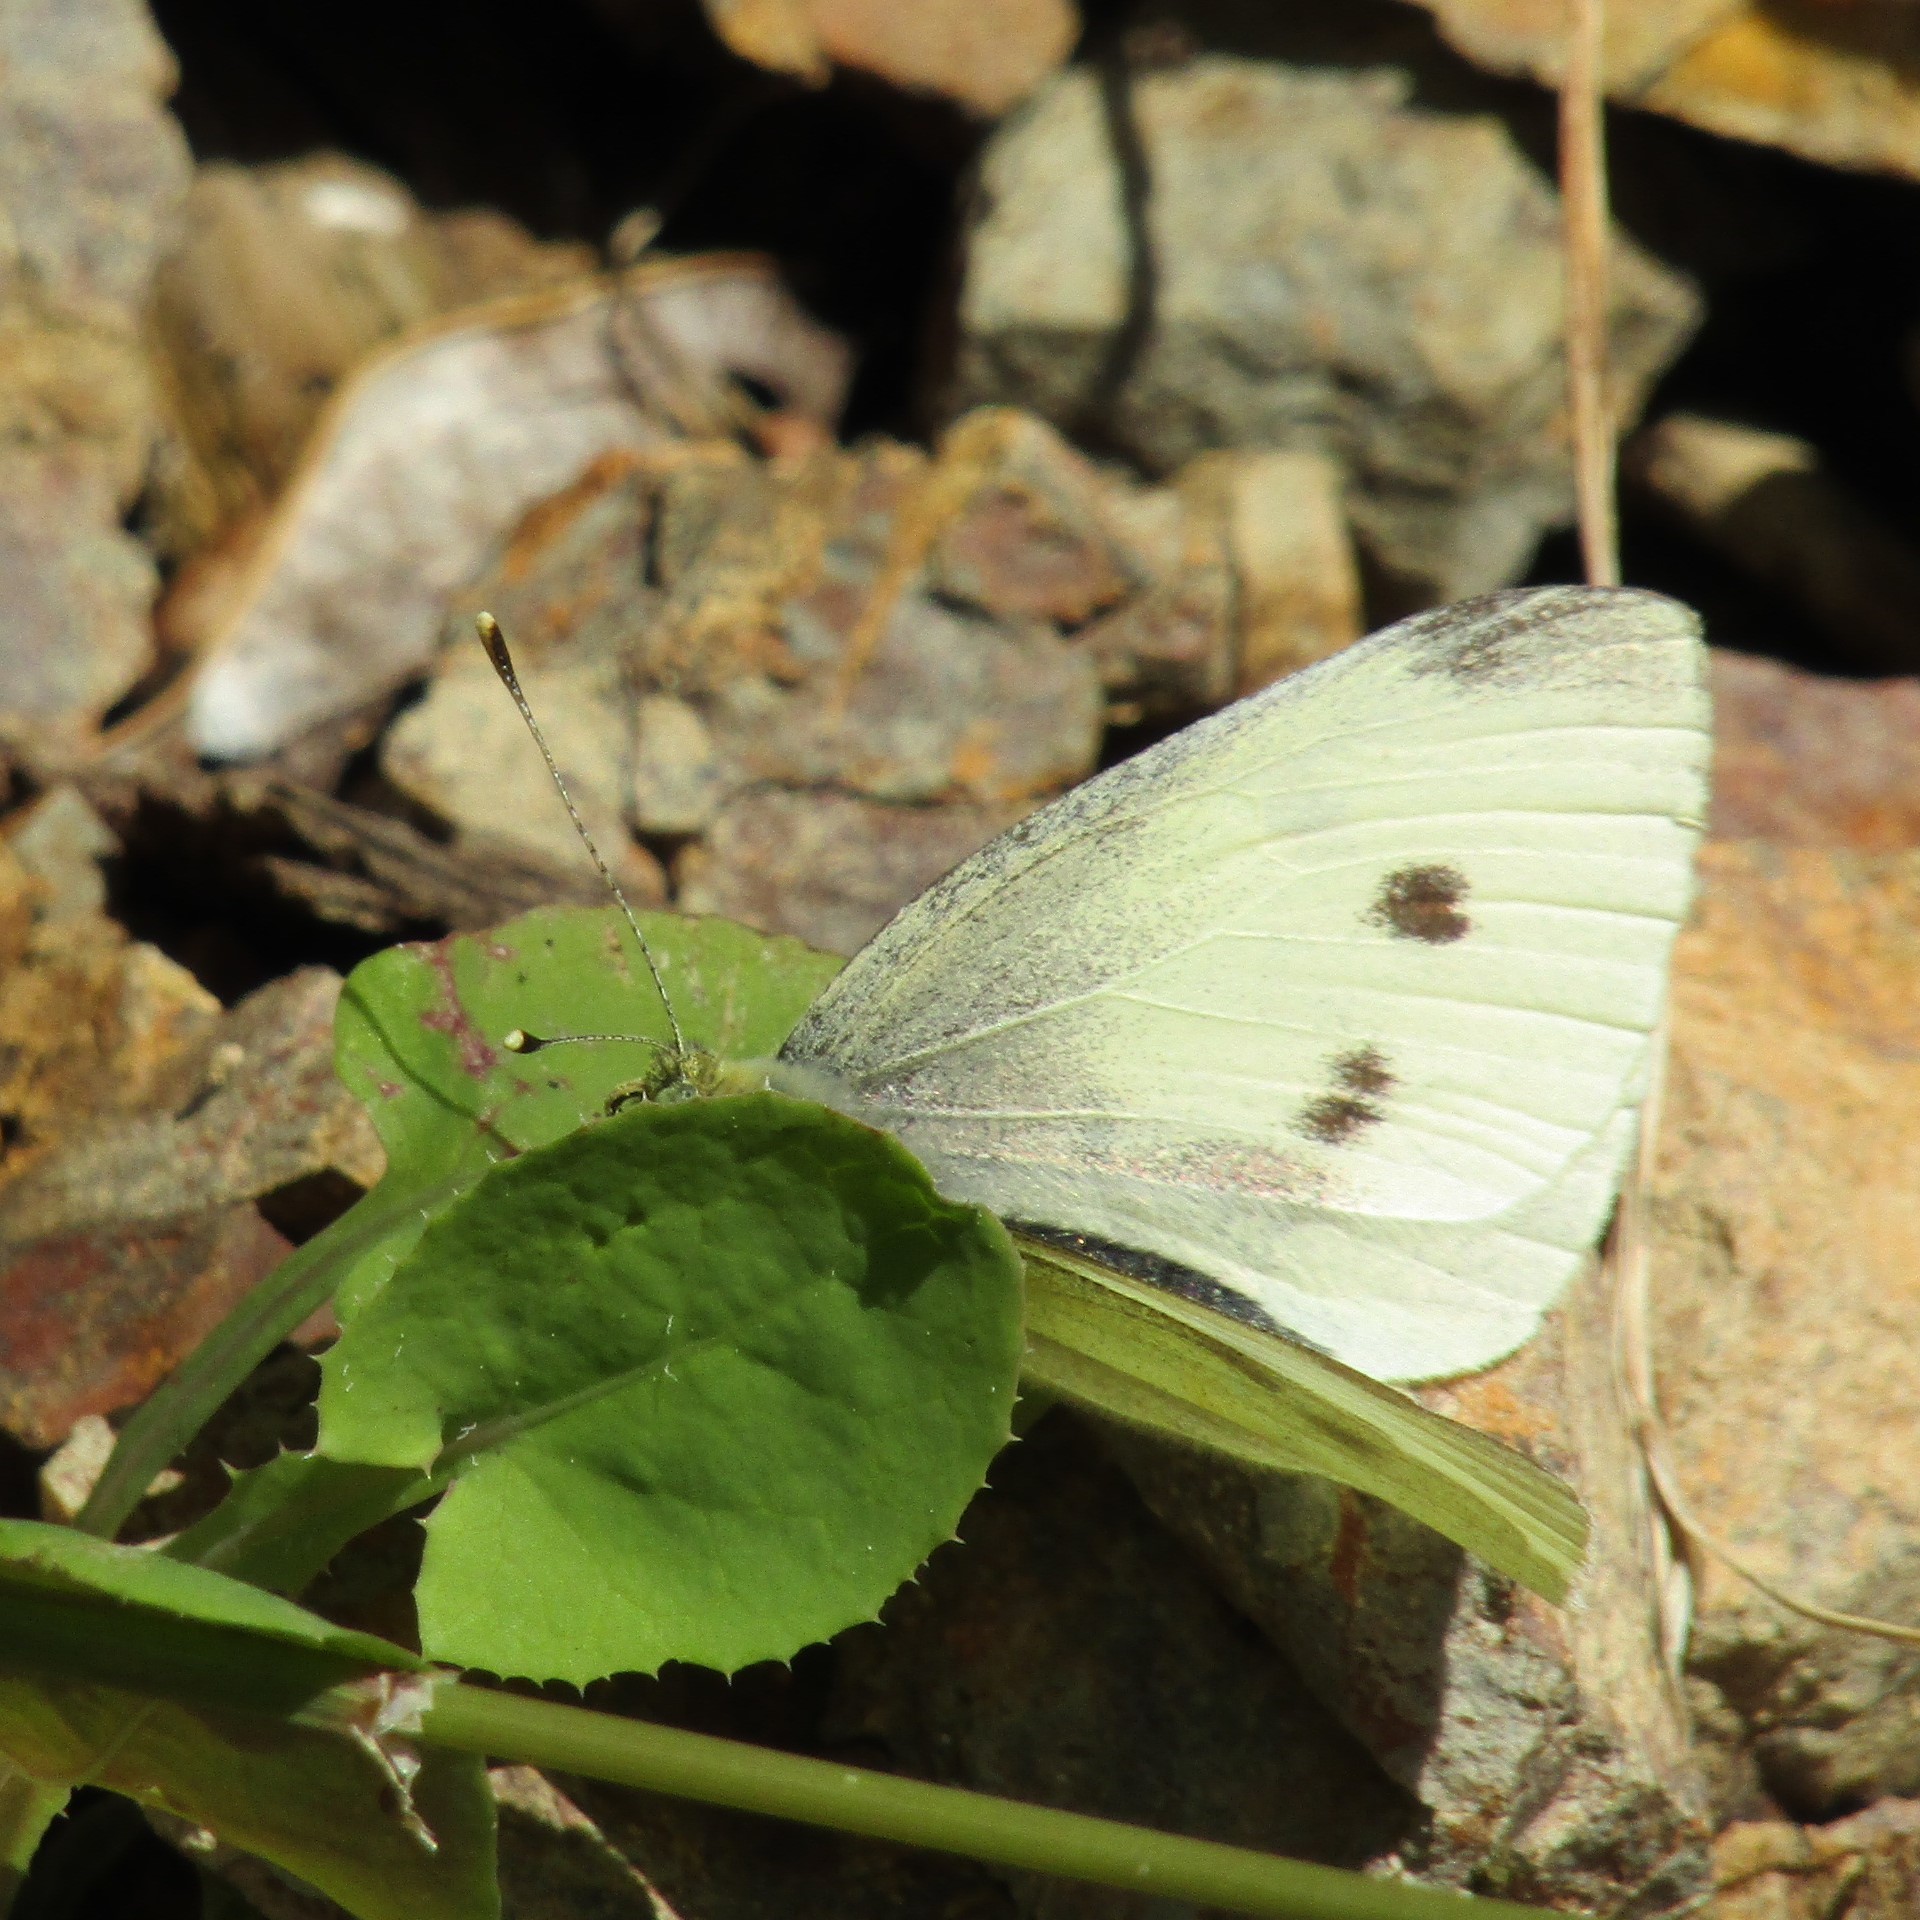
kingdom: Animalia
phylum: Arthropoda
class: Insecta
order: Lepidoptera
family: Pieridae
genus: Pieris
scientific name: Pieris rapae
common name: Small white
